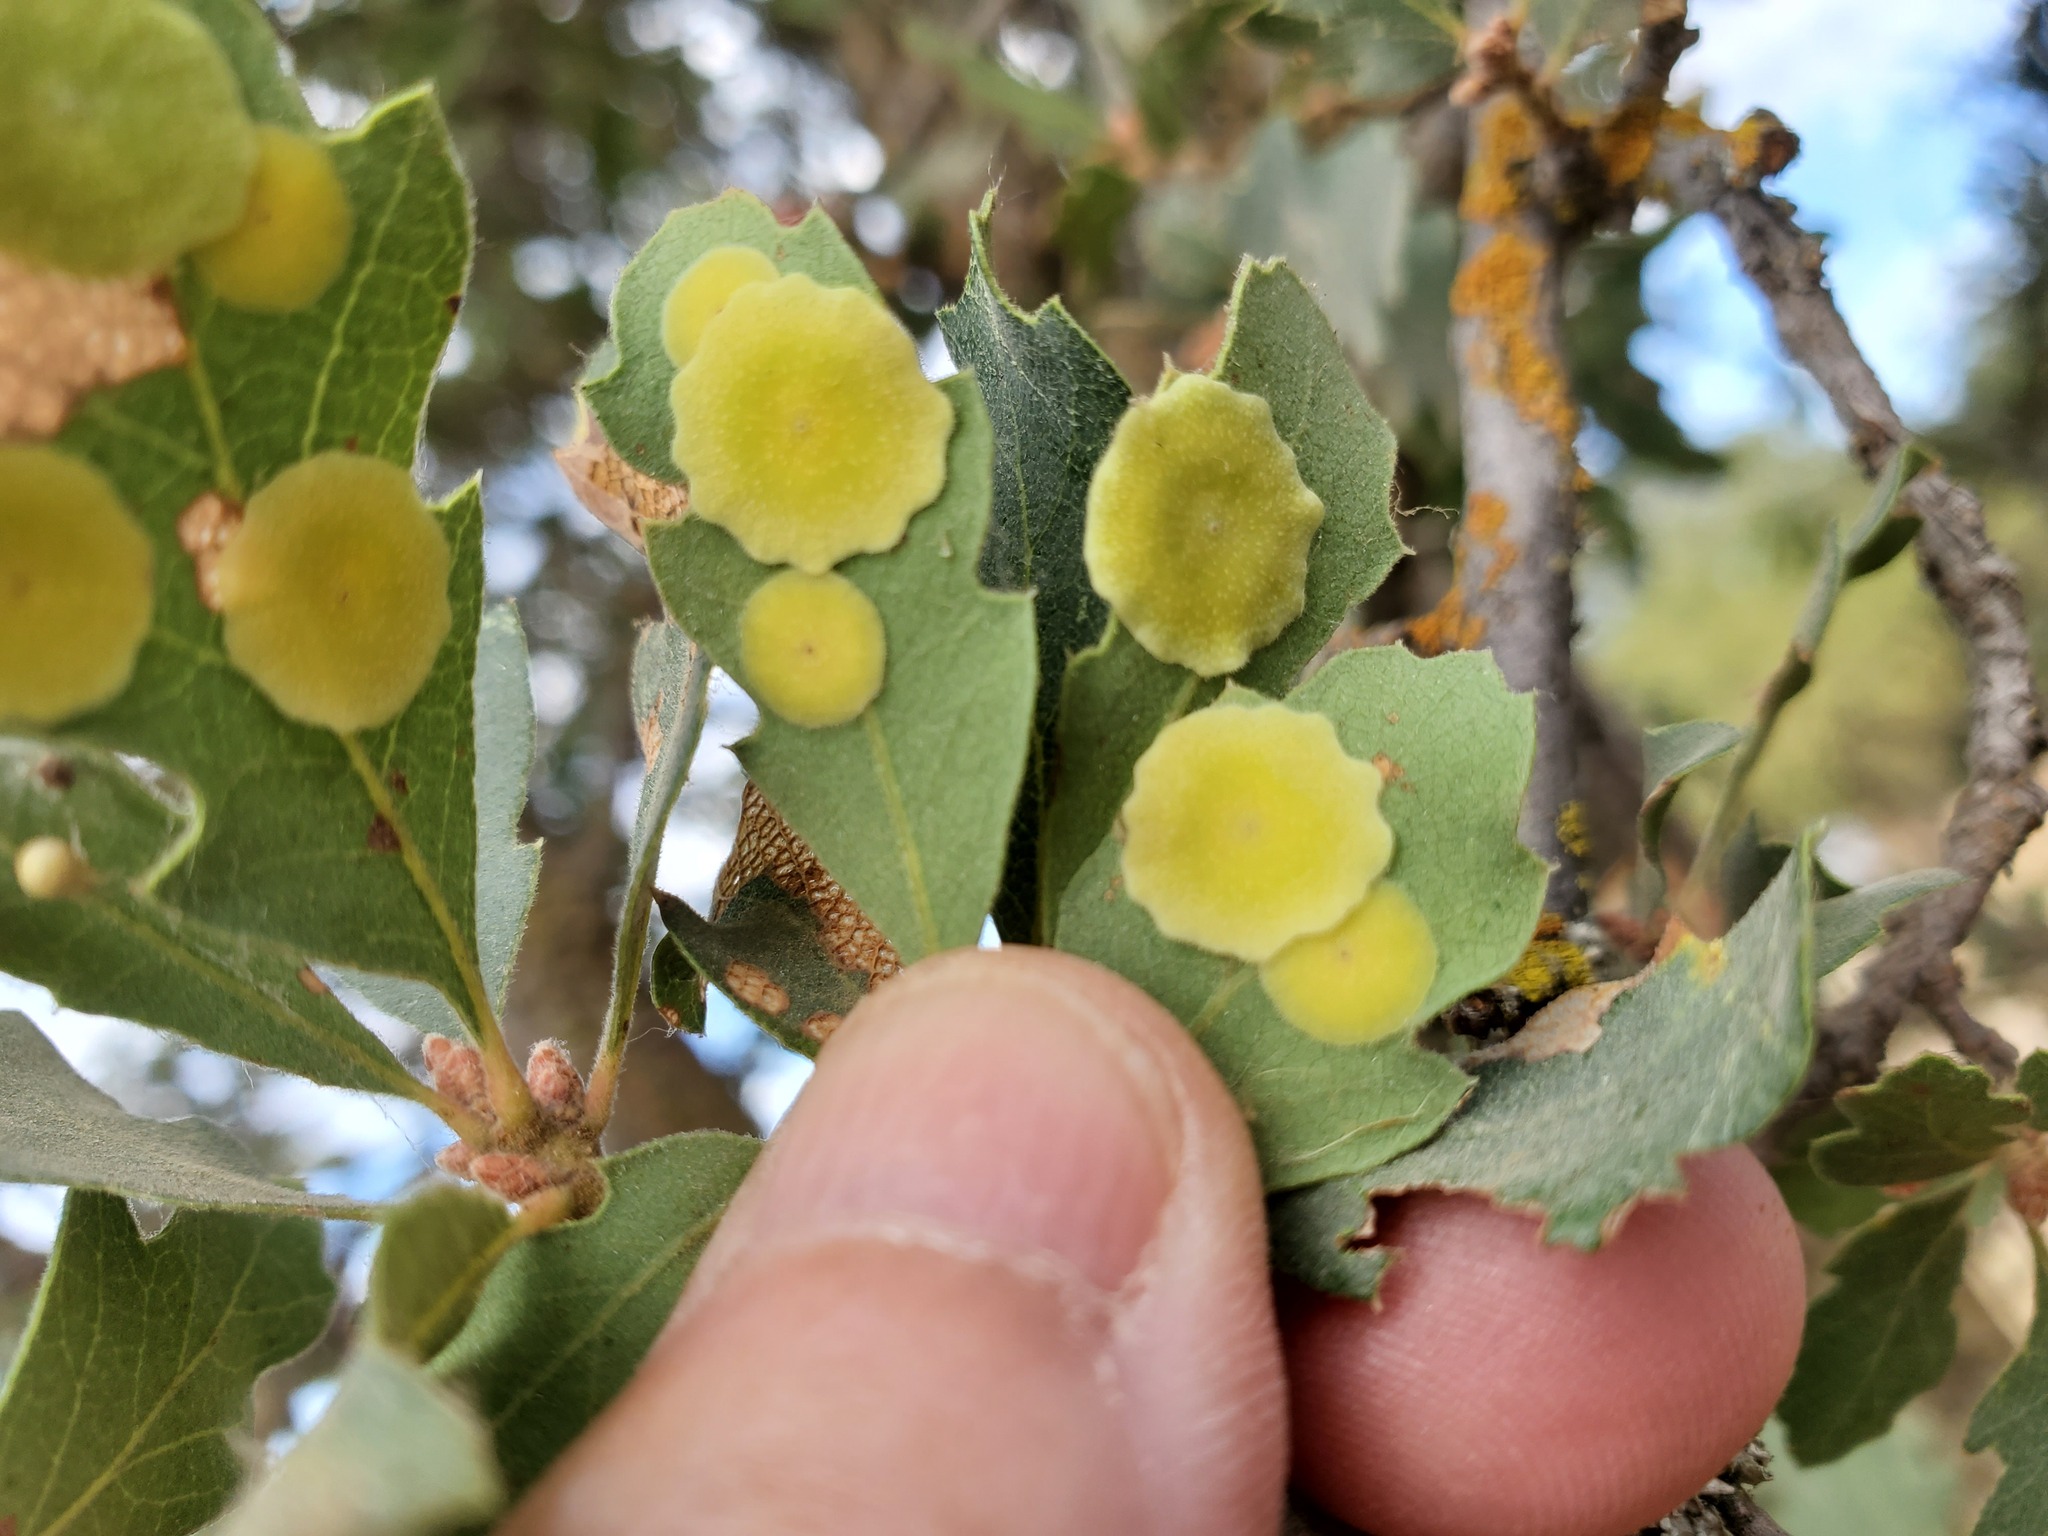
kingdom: Animalia
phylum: Arthropoda
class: Insecta
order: Hymenoptera
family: Cynipidae
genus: Andricus
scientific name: Andricus
